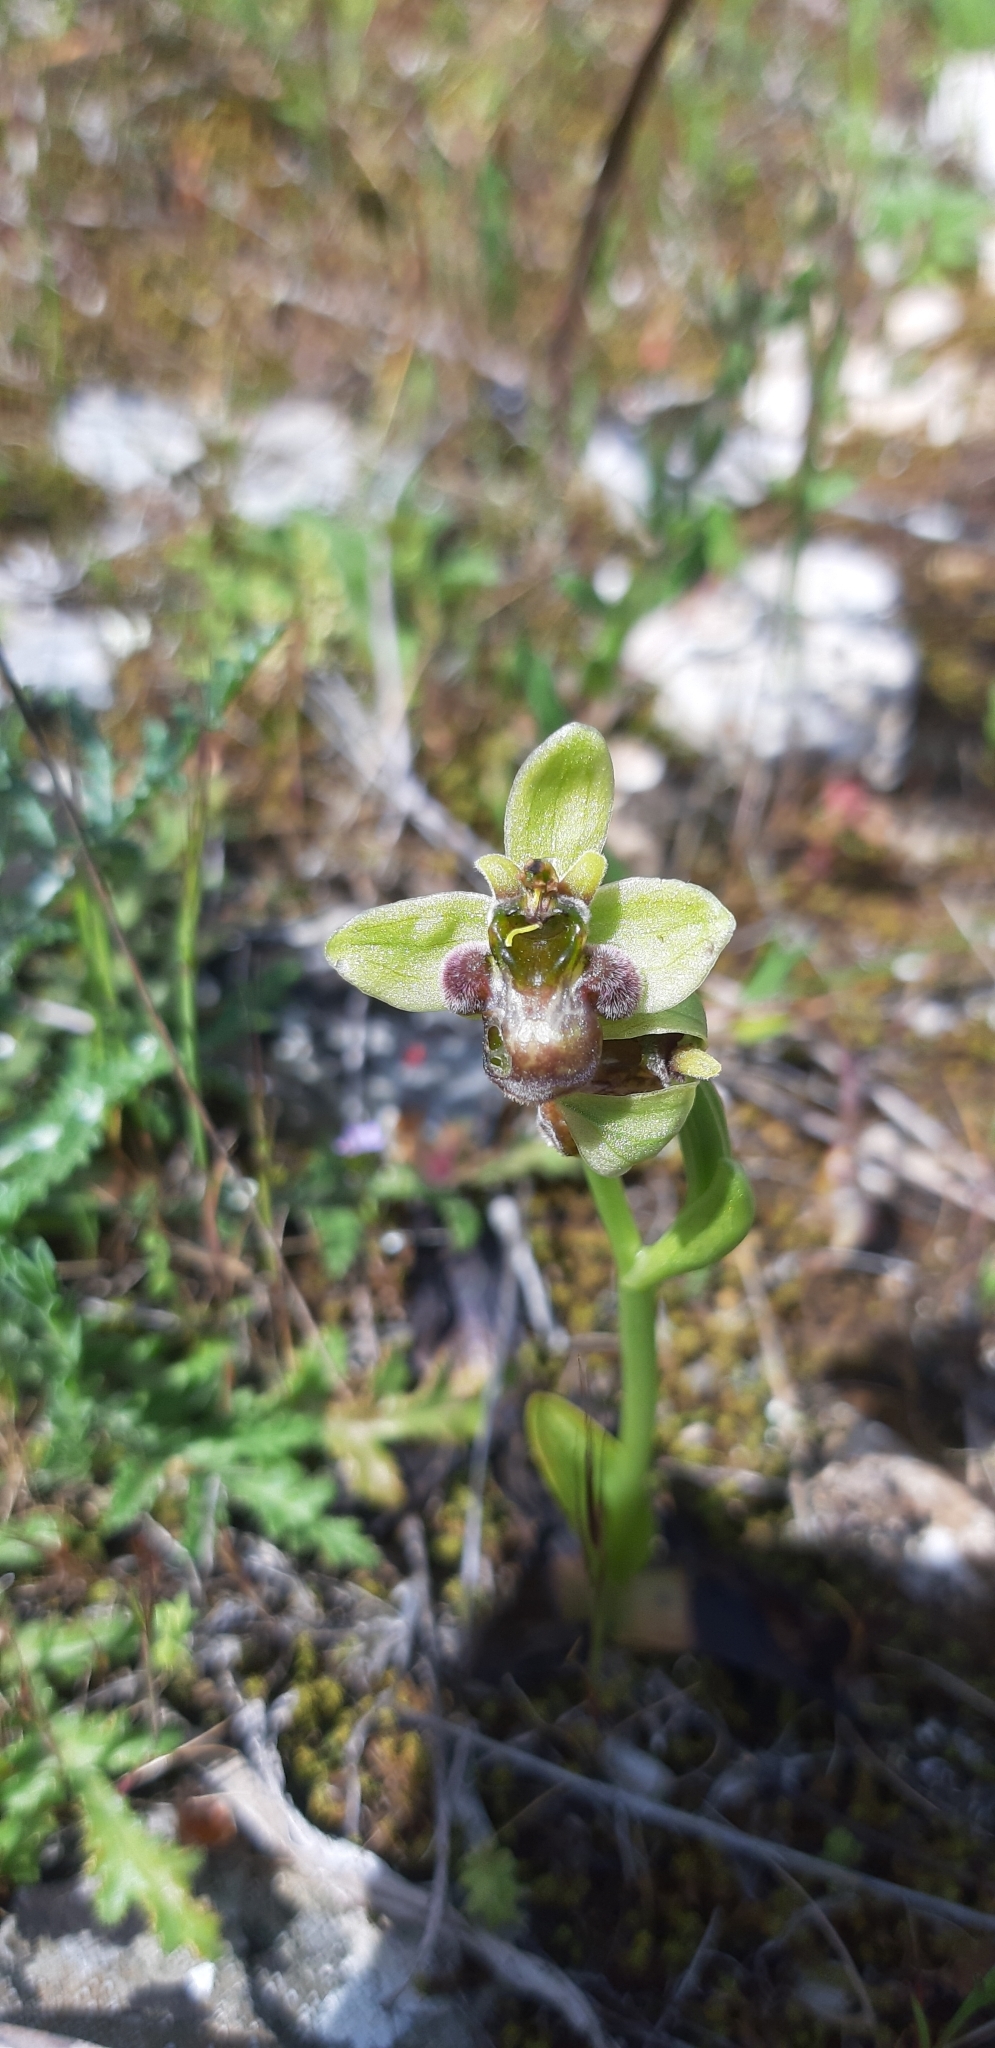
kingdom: Plantae
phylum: Tracheophyta
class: Liliopsida
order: Asparagales
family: Orchidaceae
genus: Ophrys
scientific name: Ophrys bombyliflora
